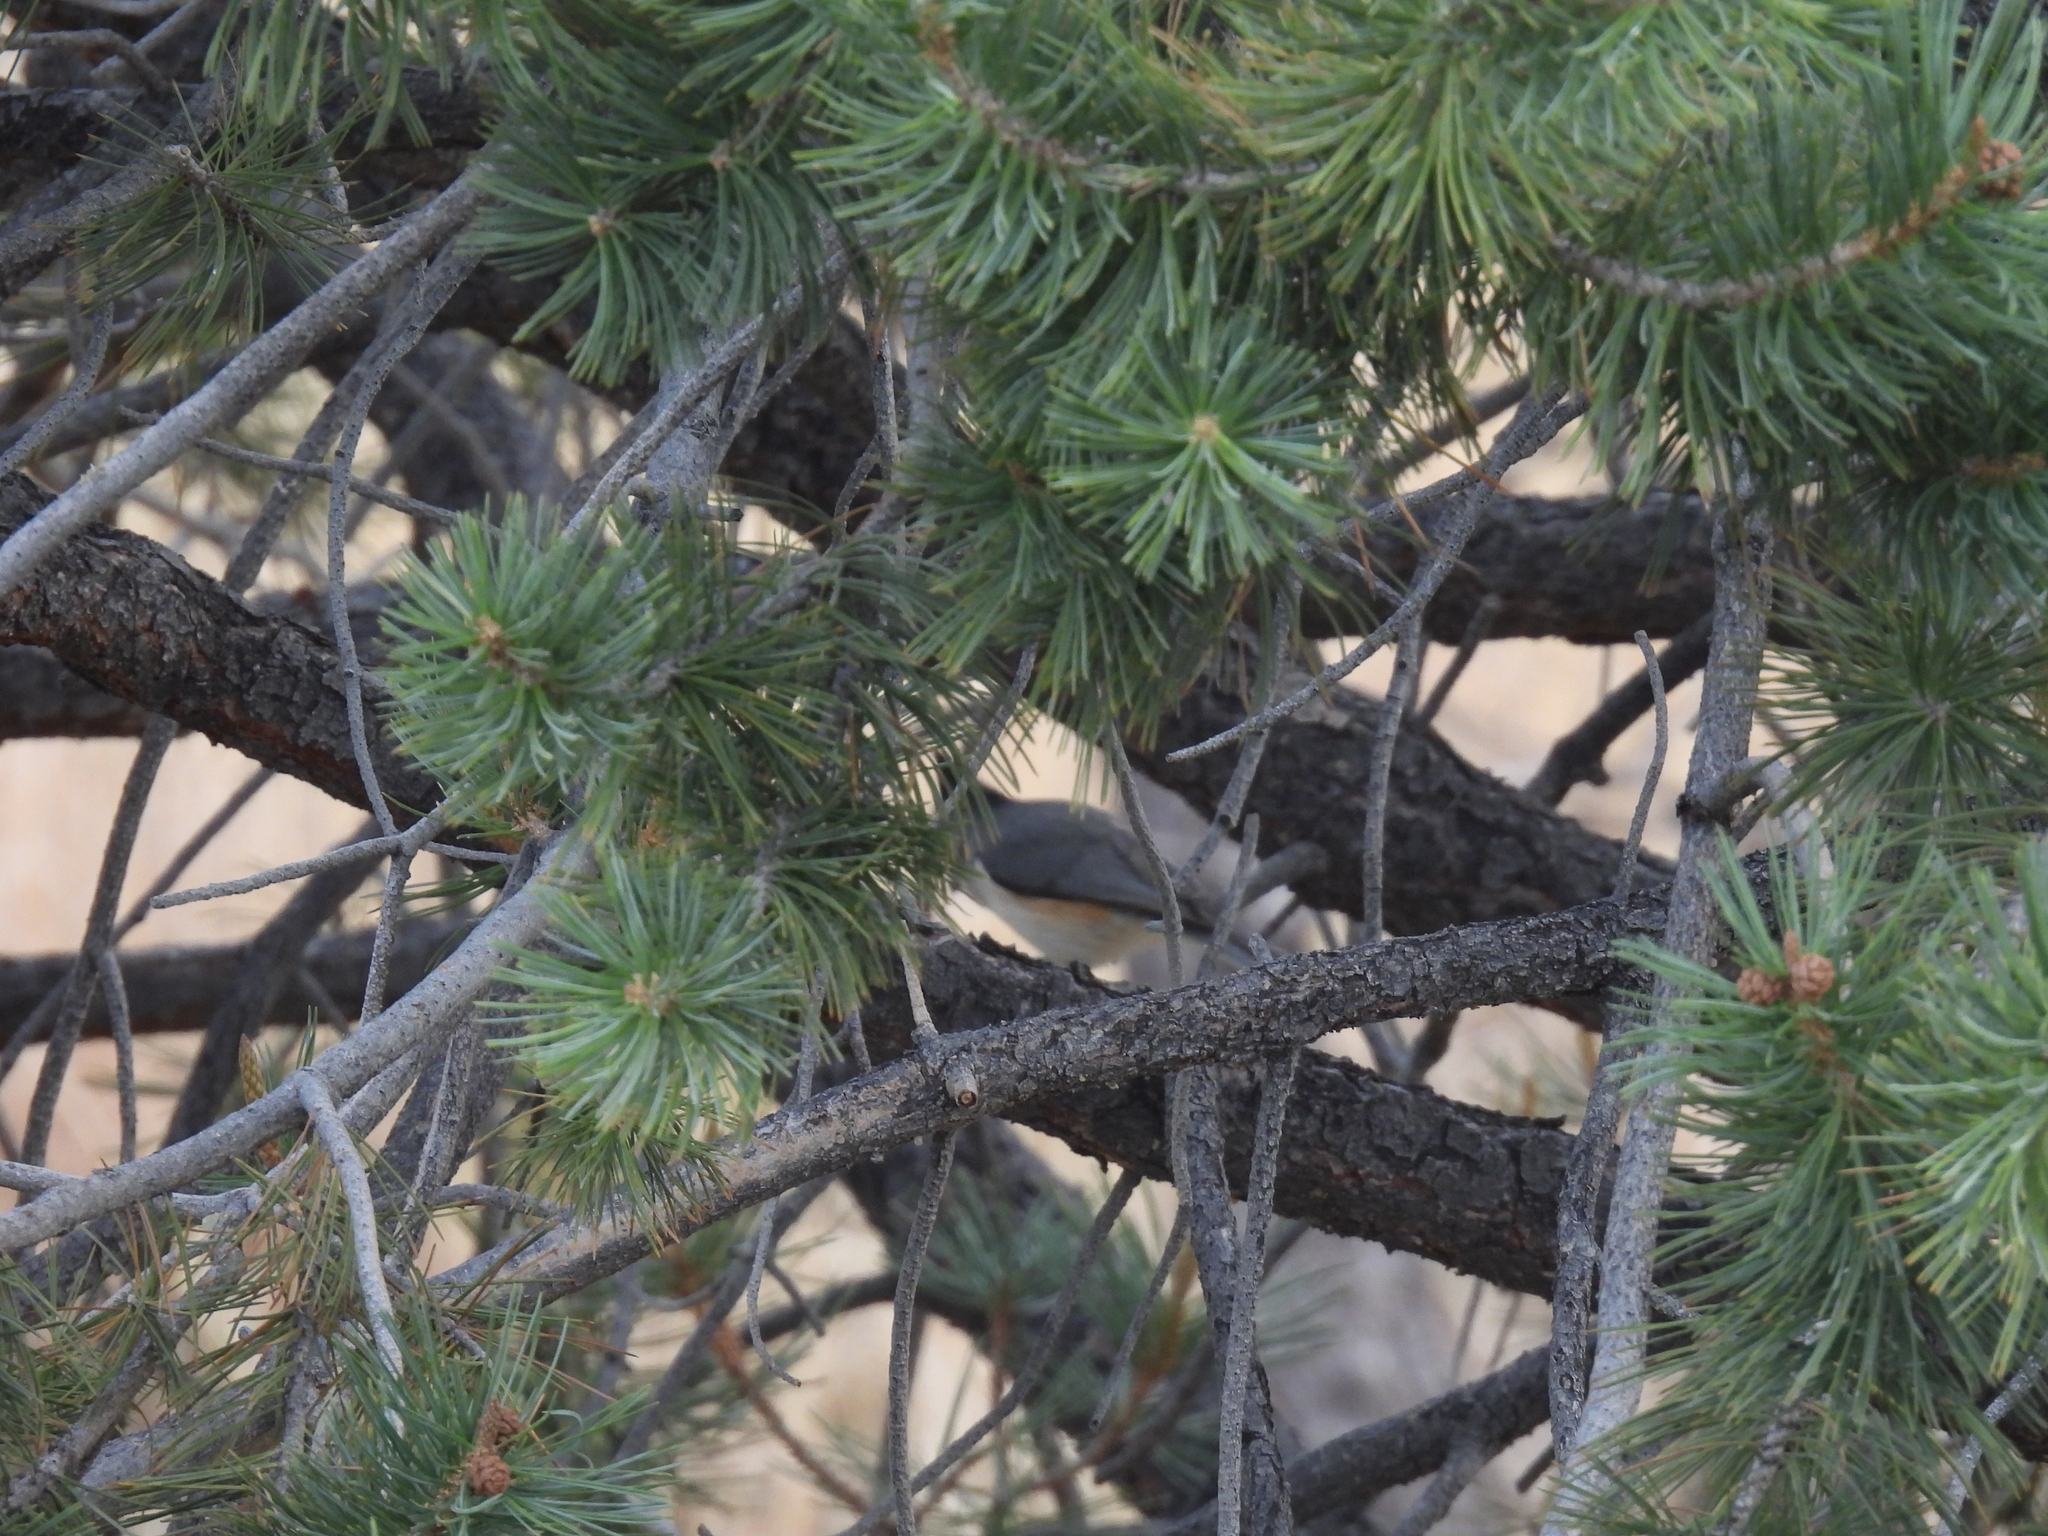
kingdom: Animalia
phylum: Chordata
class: Aves
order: Passeriformes
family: Paridae
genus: Baeolophus
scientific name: Baeolophus atricristatus
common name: Black-crested titmouse
